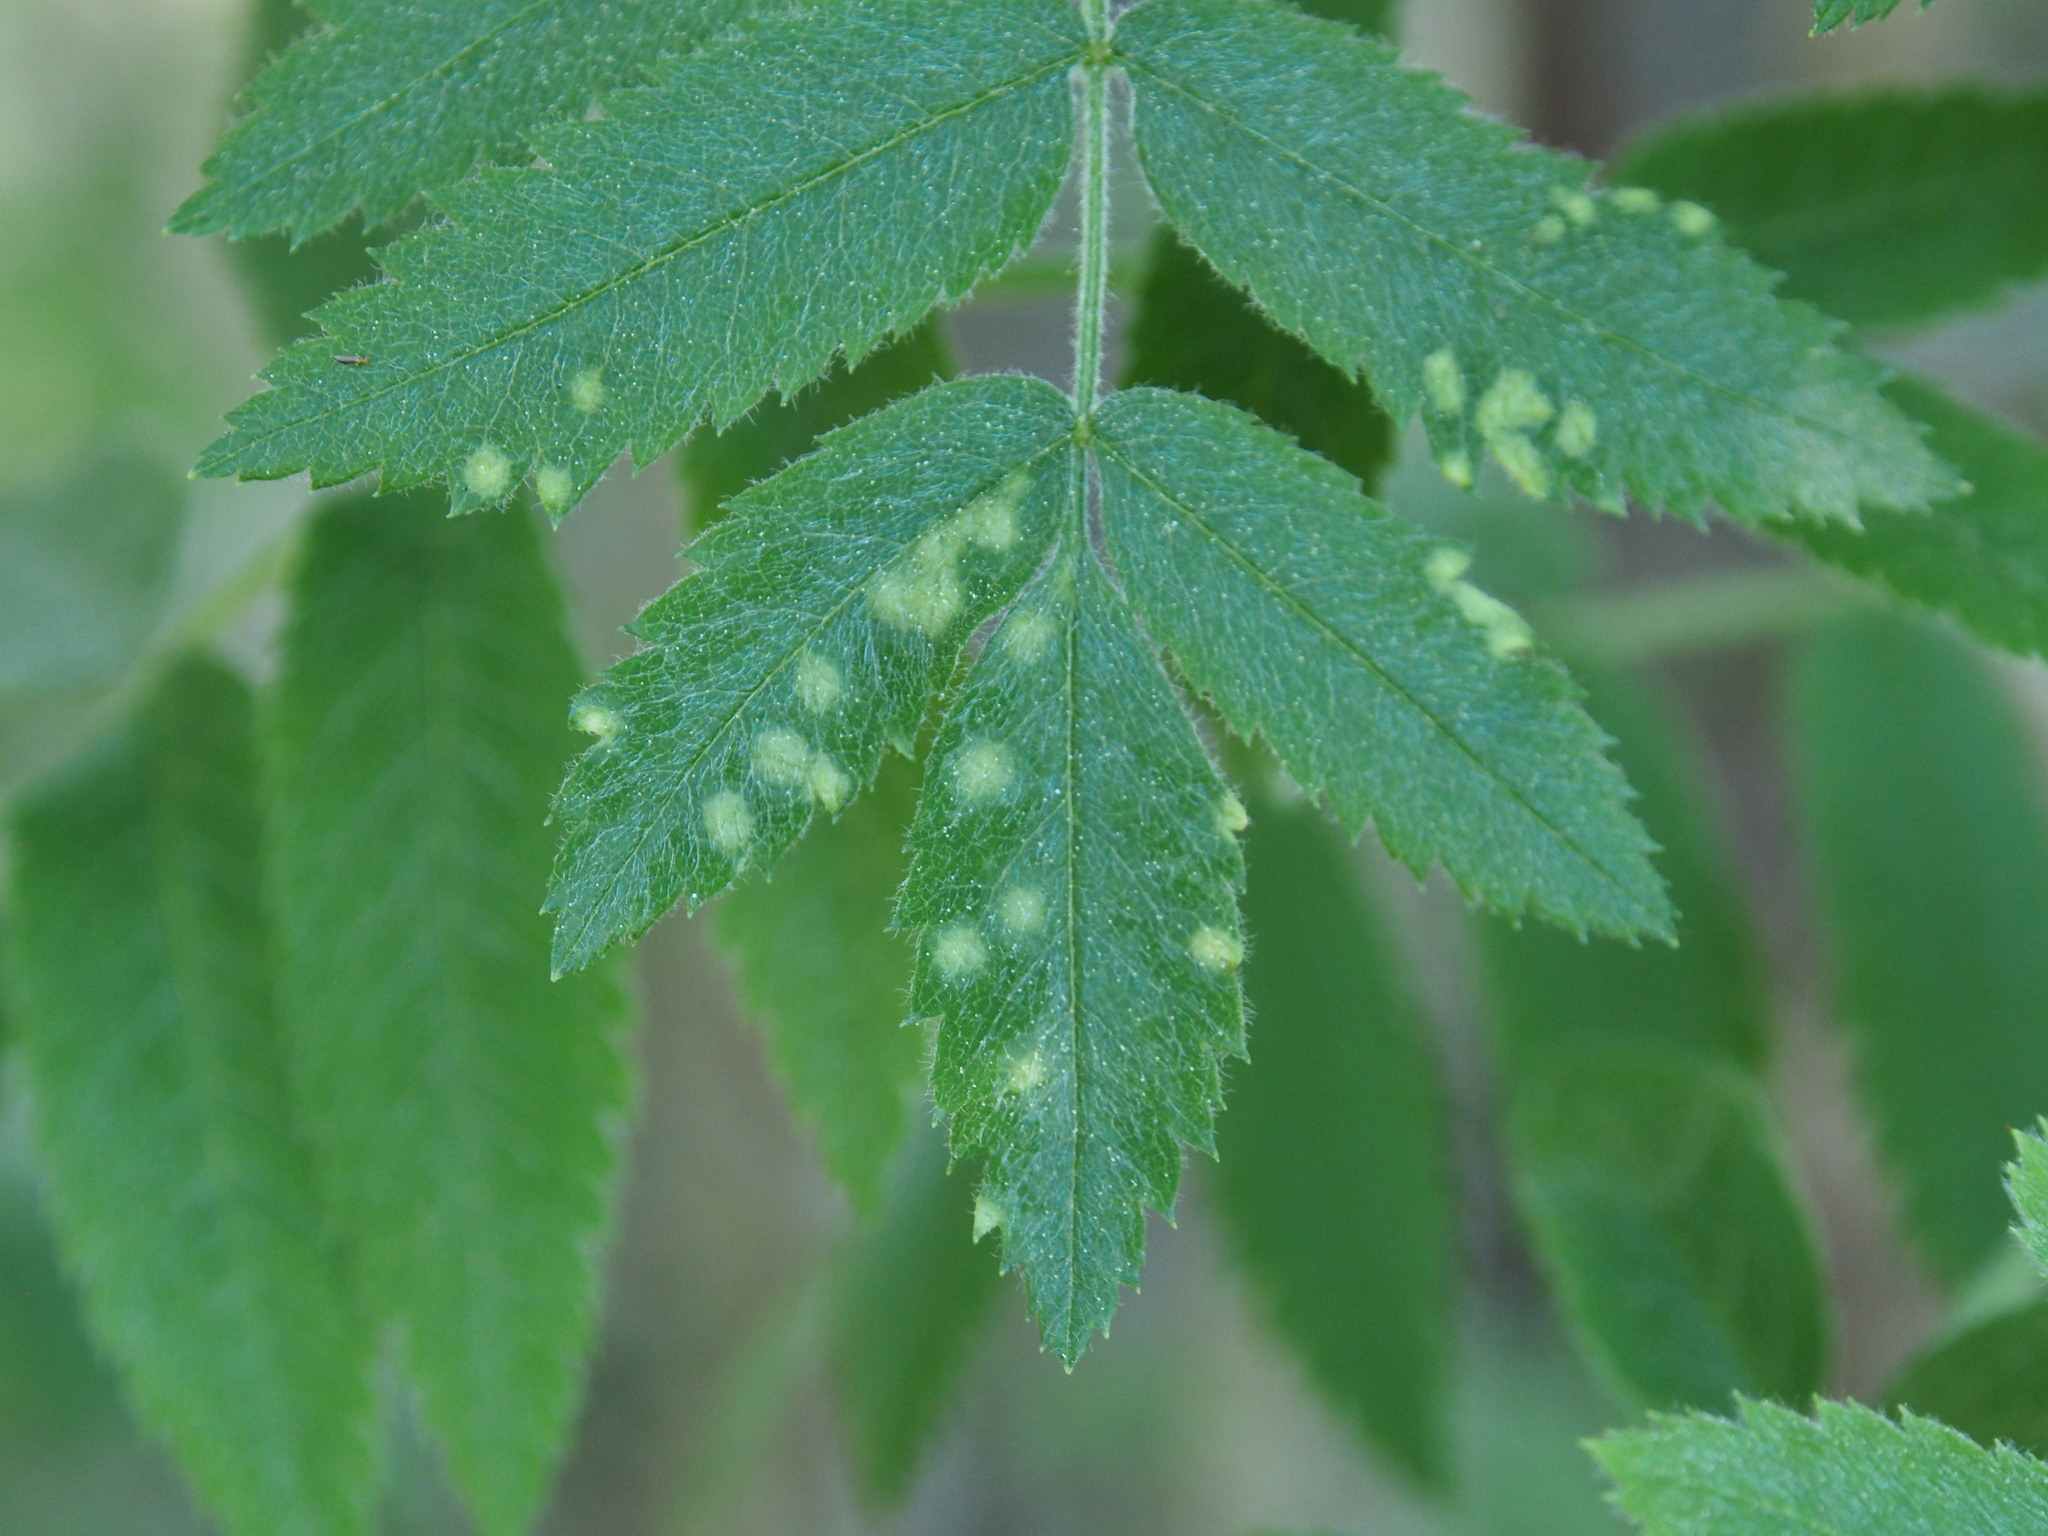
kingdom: Plantae
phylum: Tracheophyta
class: Magnoliopsida
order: Rosales
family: Rosaceae
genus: Sorbus
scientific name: Sorbus aucuparia
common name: Rowan
